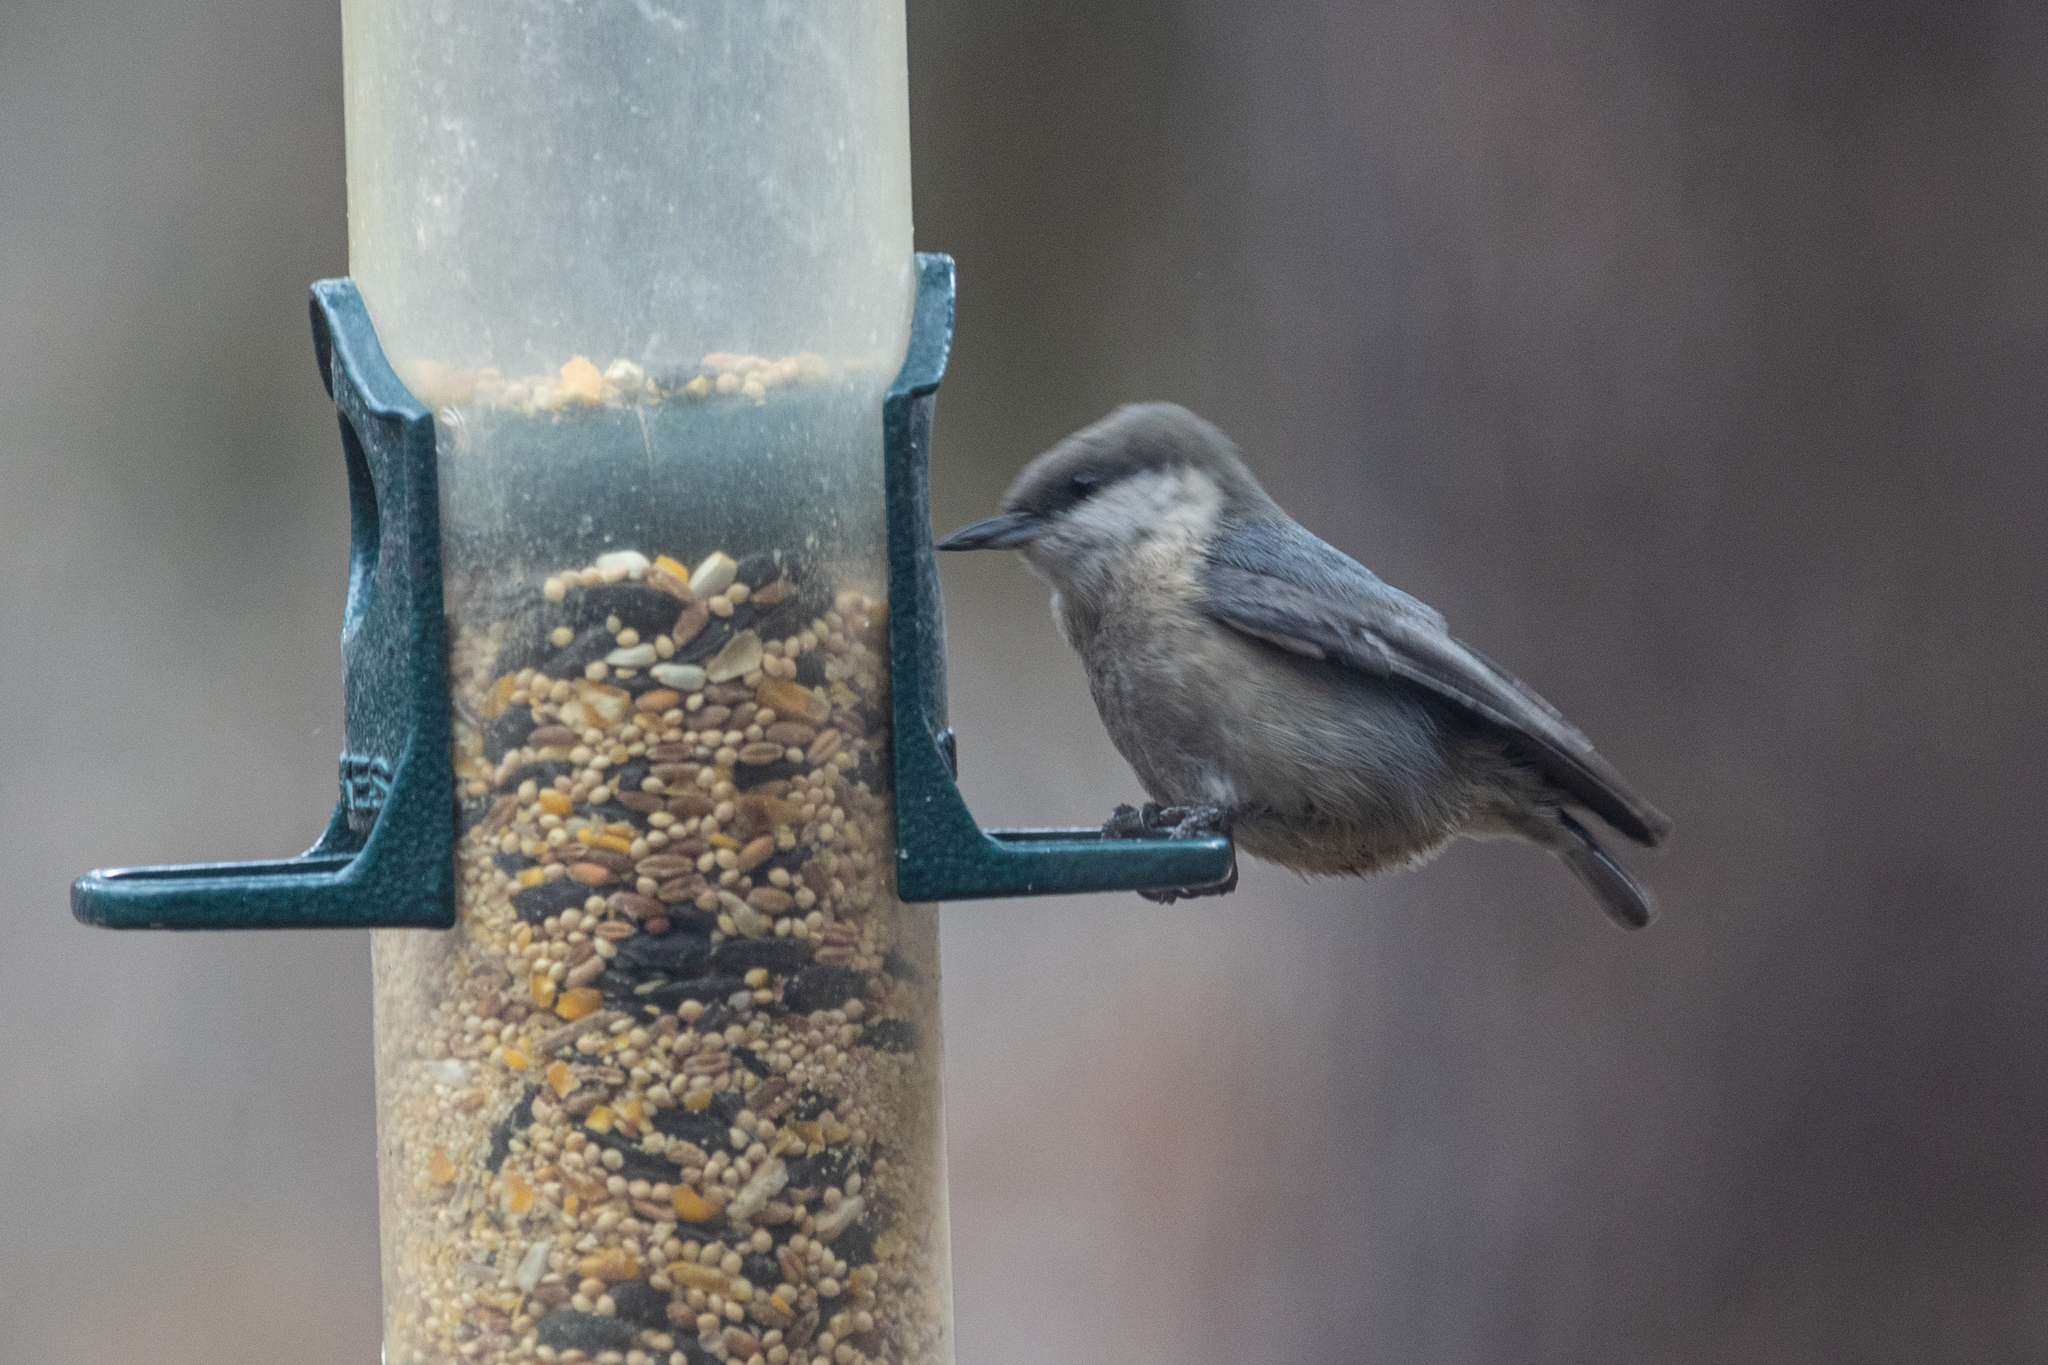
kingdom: Animalia
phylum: Chordata
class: Aves
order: Passeriformes
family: Sittidae
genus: Sitta
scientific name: Sitta pygmaea
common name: Pygmy nuthatch
